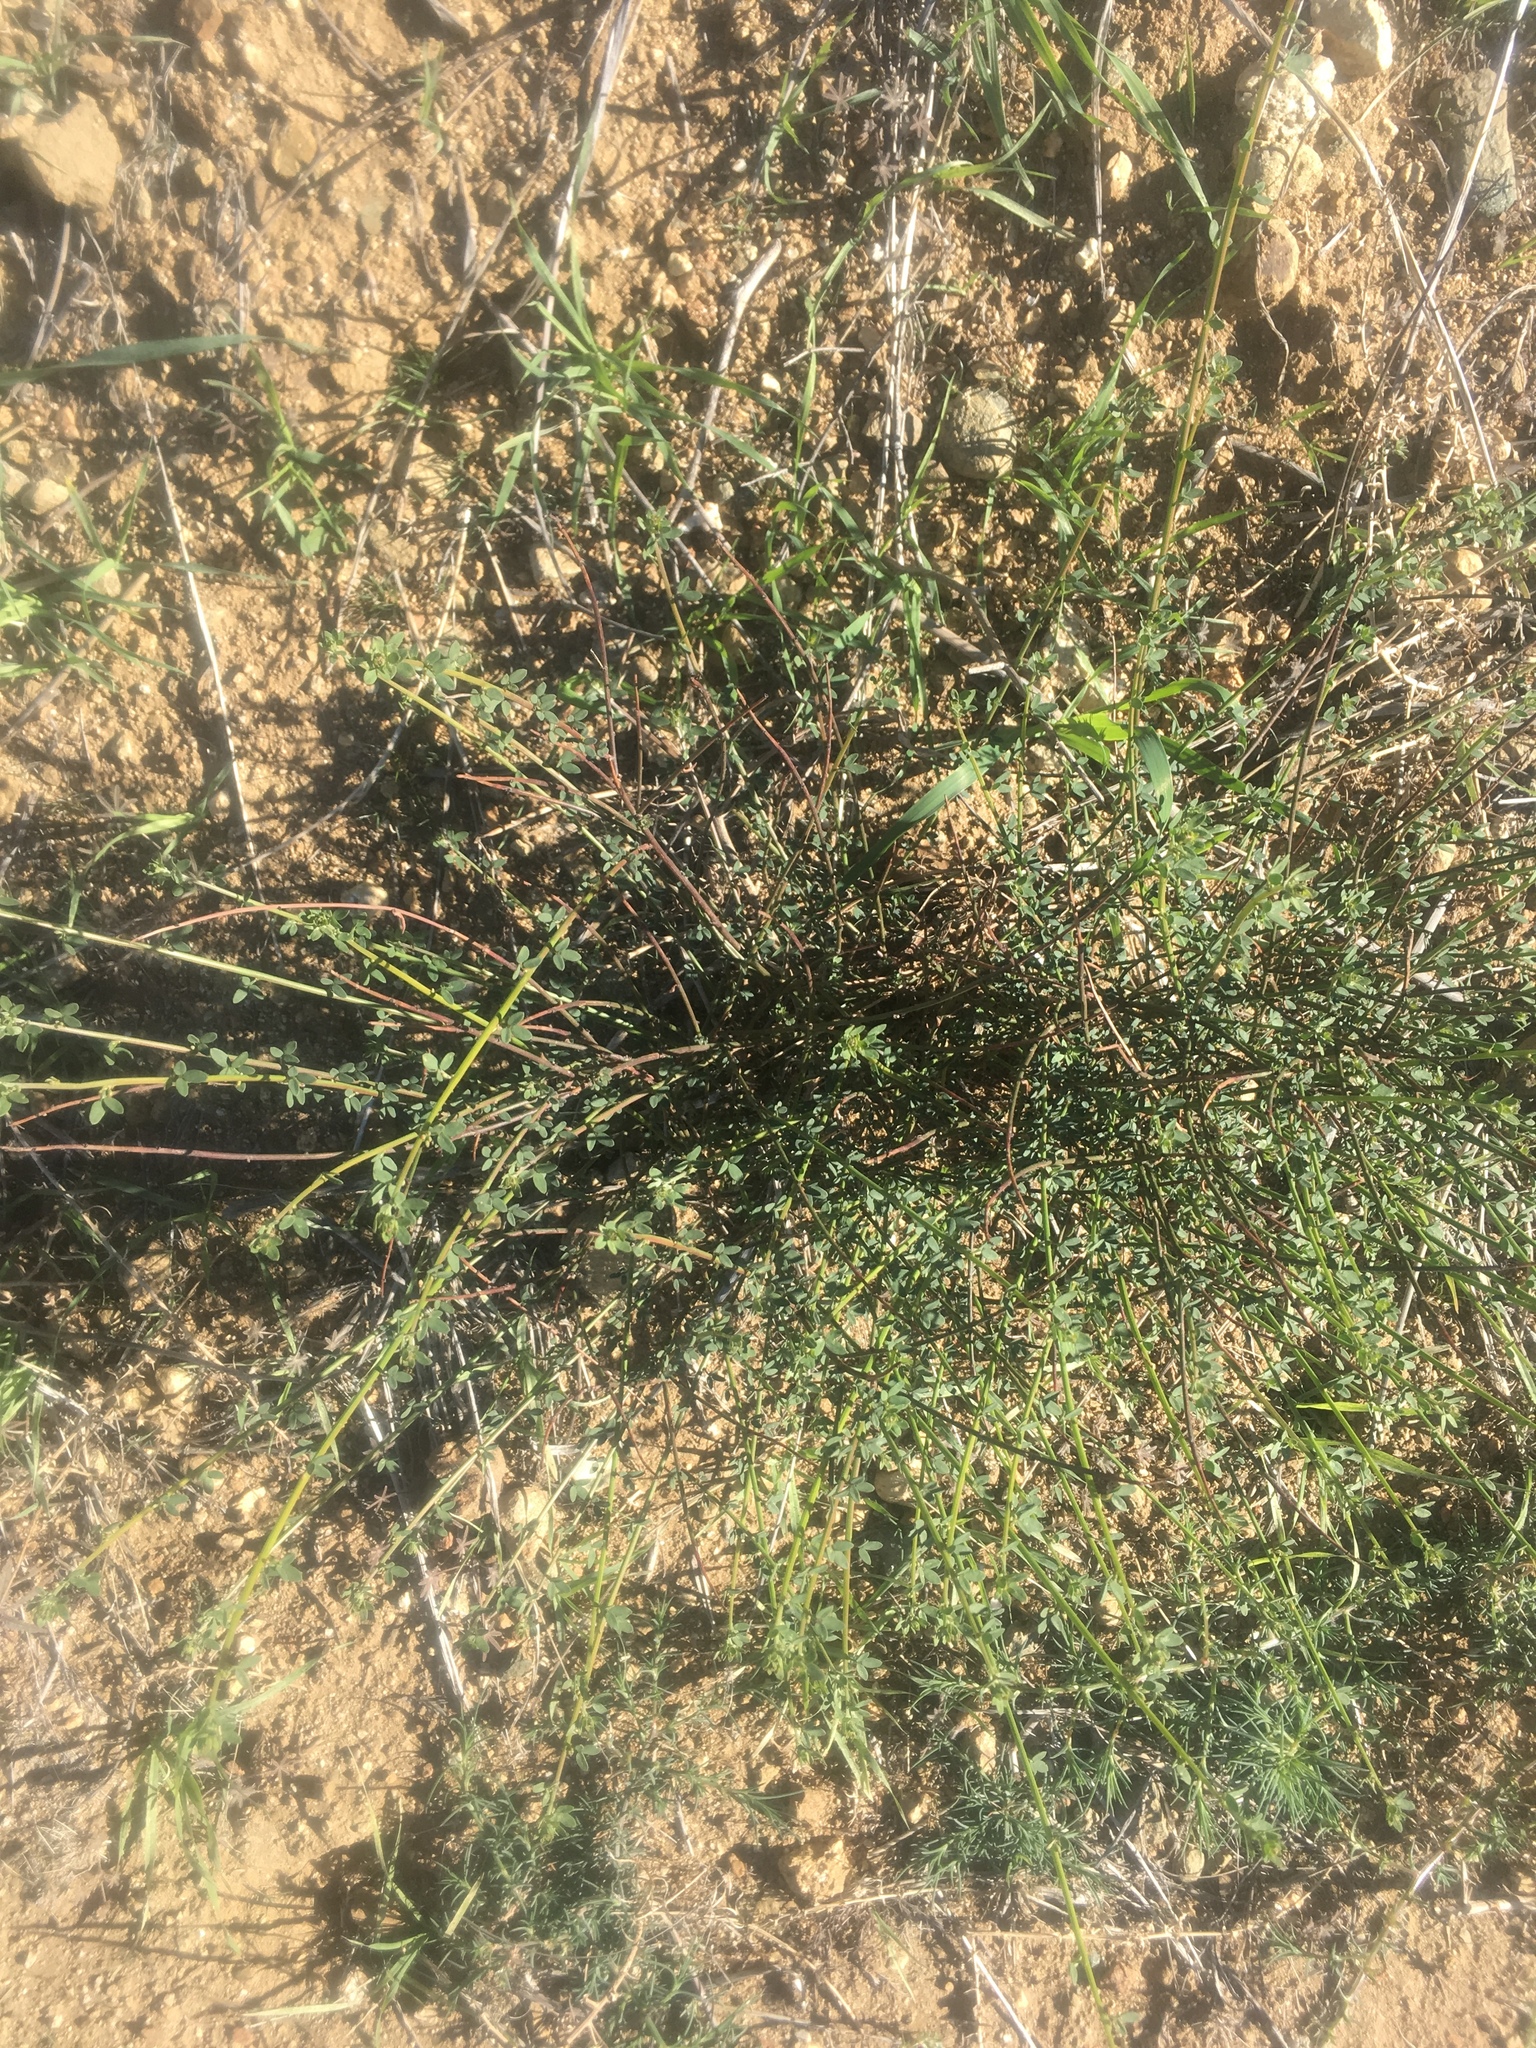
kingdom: Plantae
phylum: Tracheophyta
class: Magnoliopsida
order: Fabales
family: Fabaceae
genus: Acmispon
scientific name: Acmispon glaber
